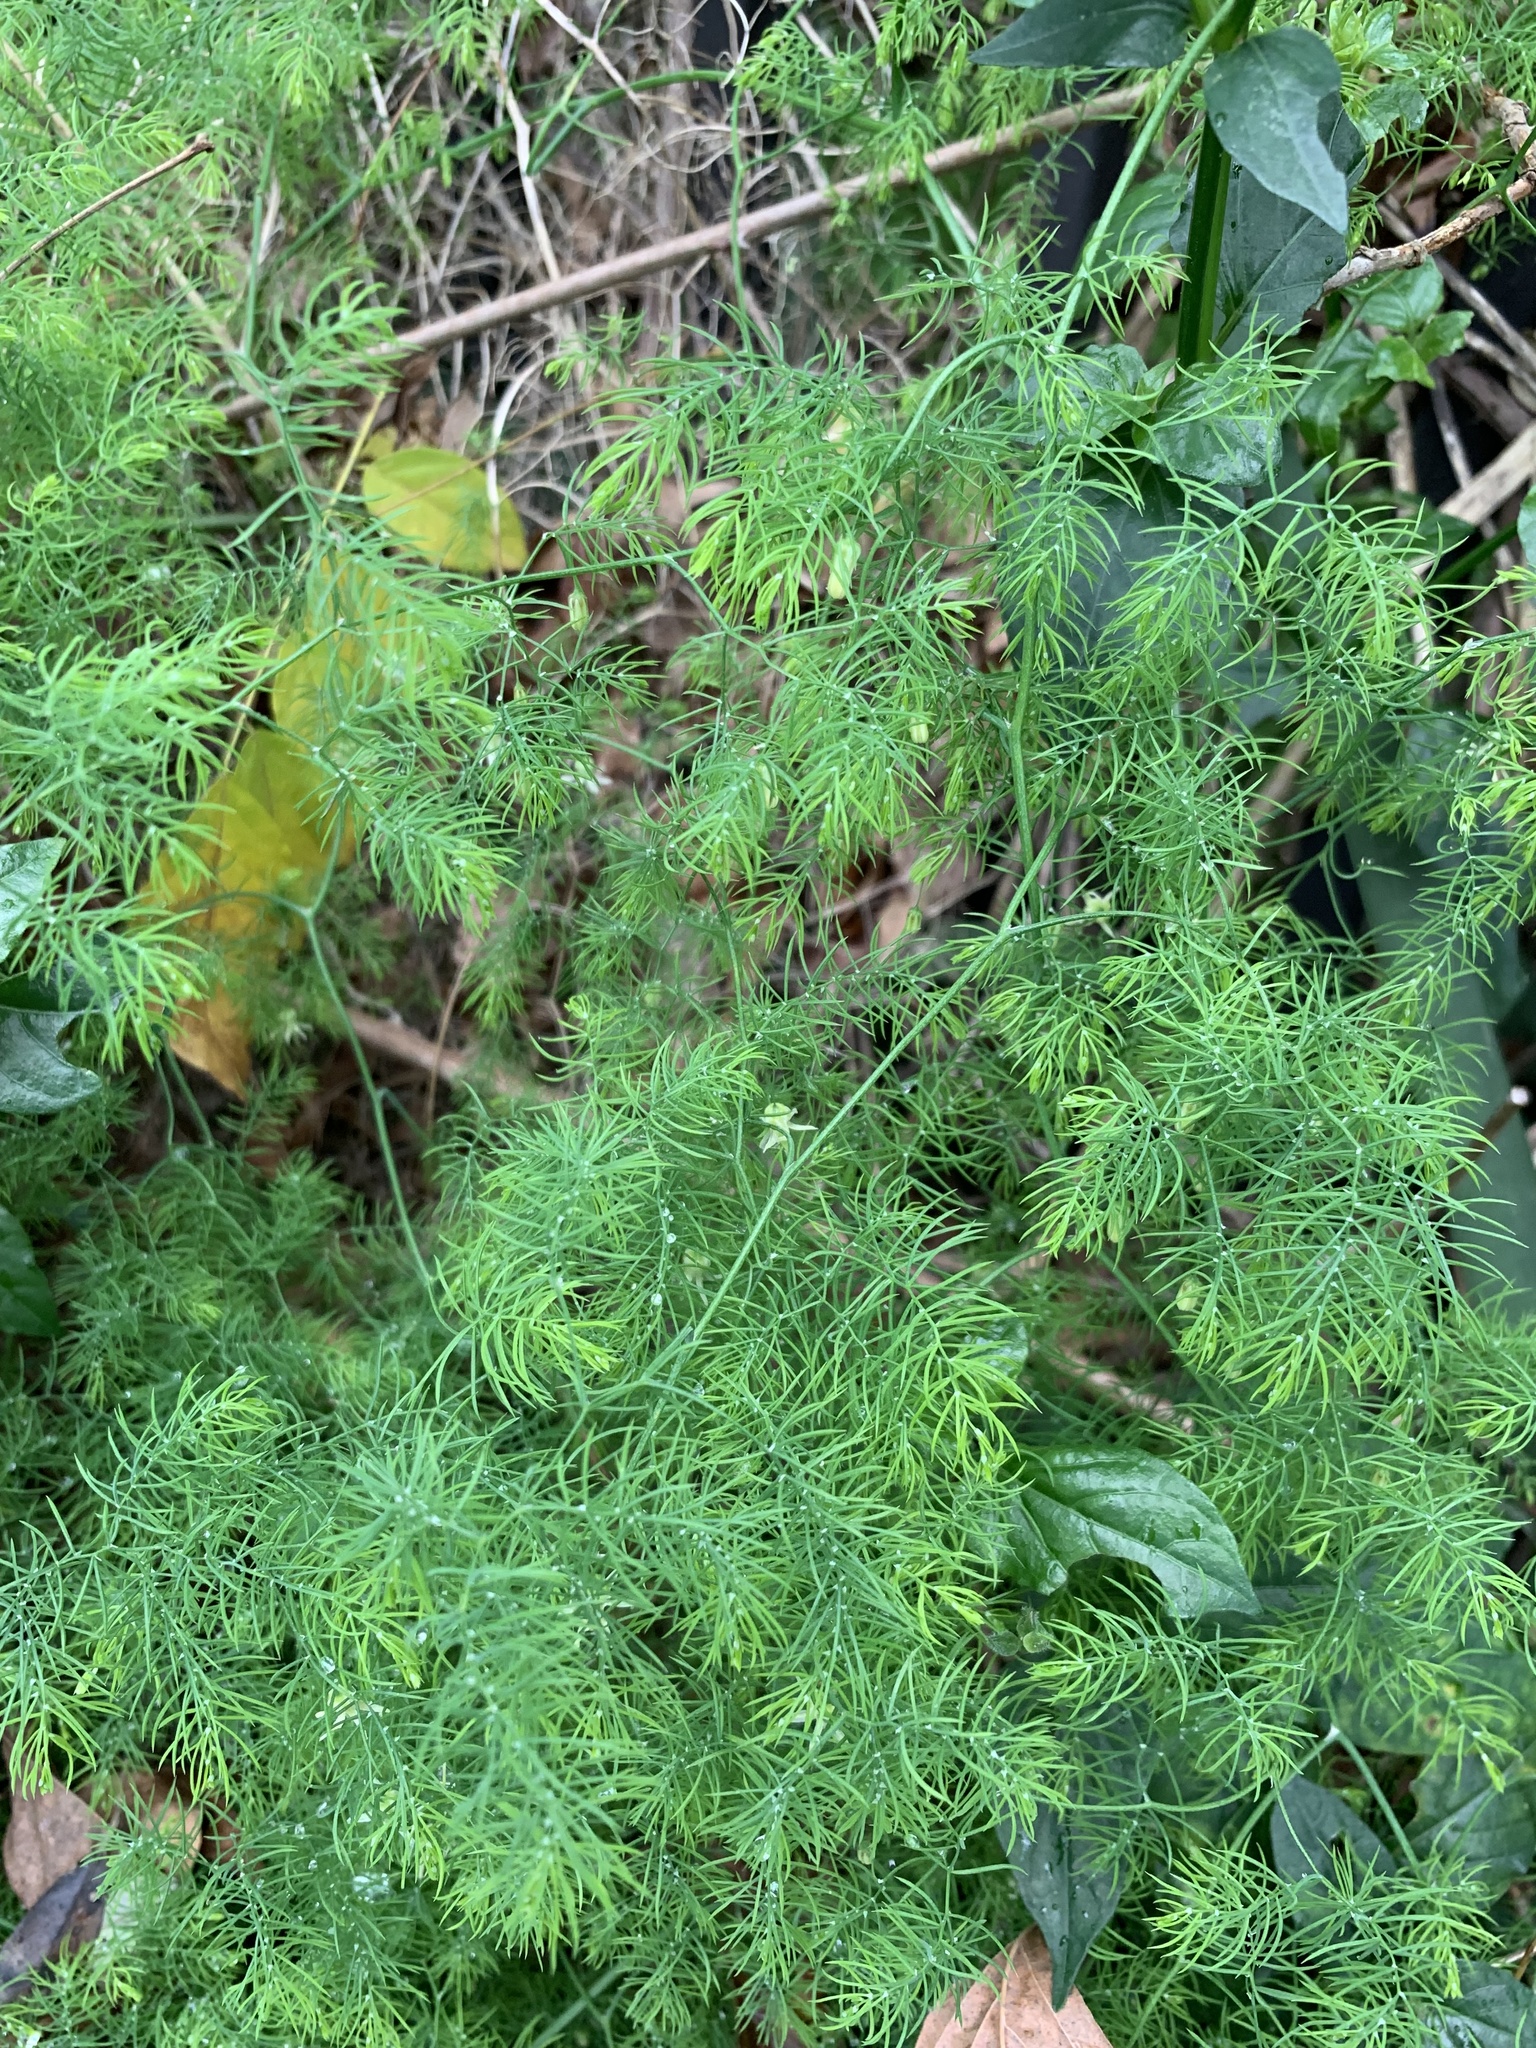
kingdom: Plantae
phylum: Tracheophyta
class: Liliopsida
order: Asparagales
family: Asparagaceae
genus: Asparagus
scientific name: Asparagus declinatus
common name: Bridal-creeper
